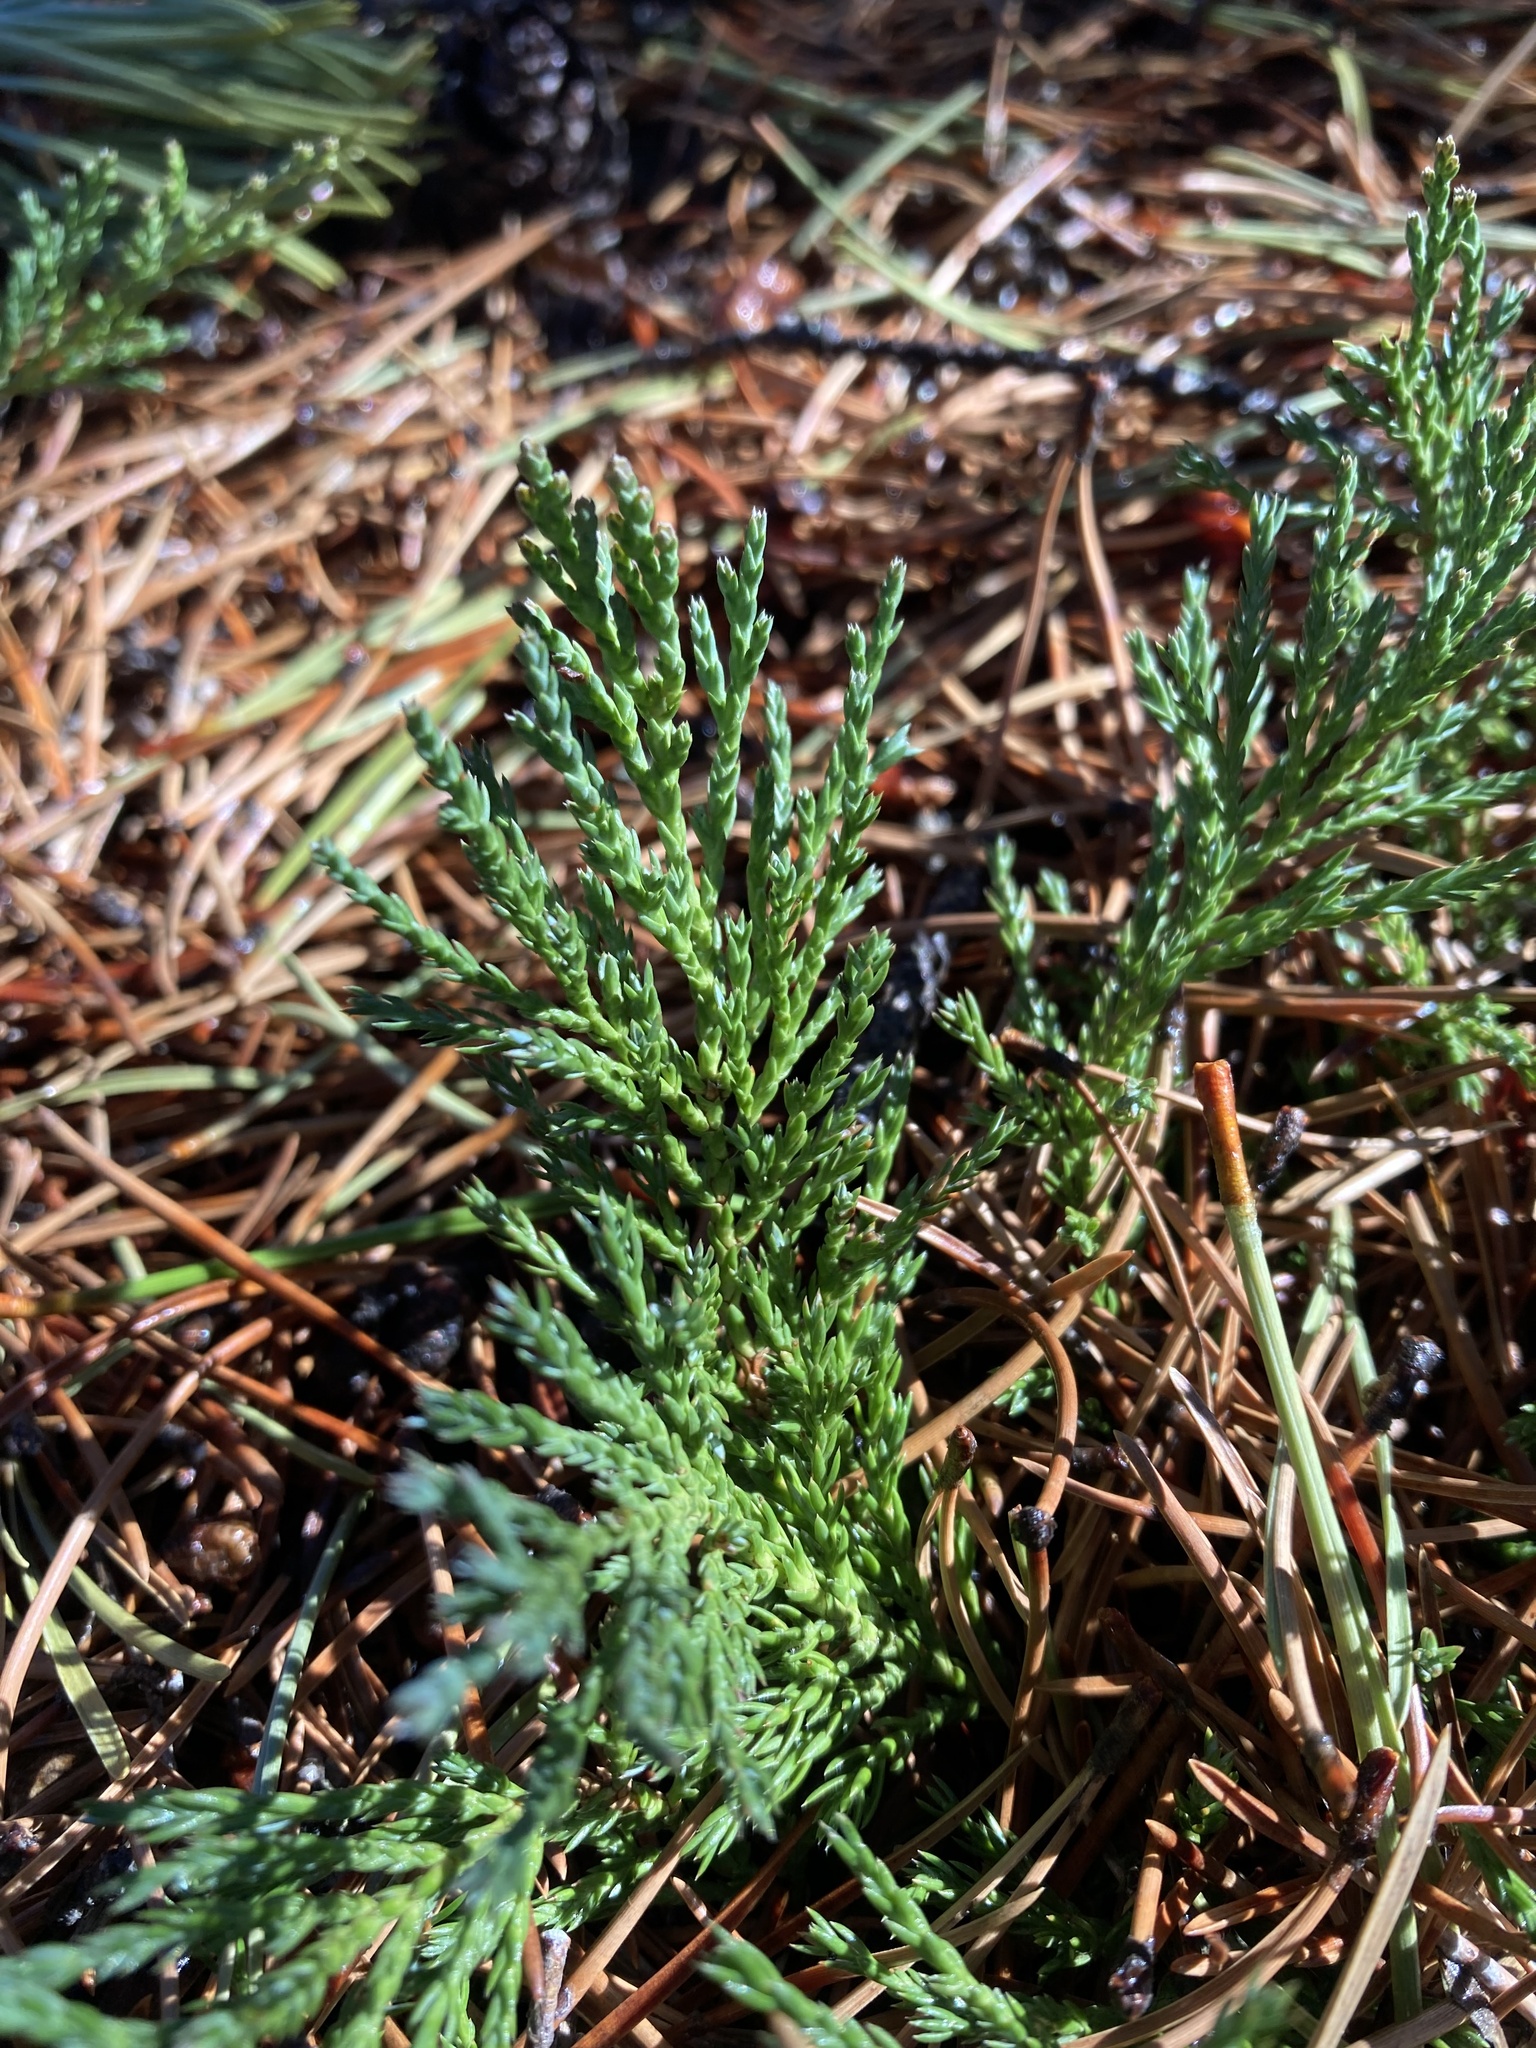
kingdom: Plantae
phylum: Tracheophyta
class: Pinopsida
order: Pinales
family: Cupressaceae
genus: Juniperus
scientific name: Juniperus horizontalis
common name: Creeping juniper
